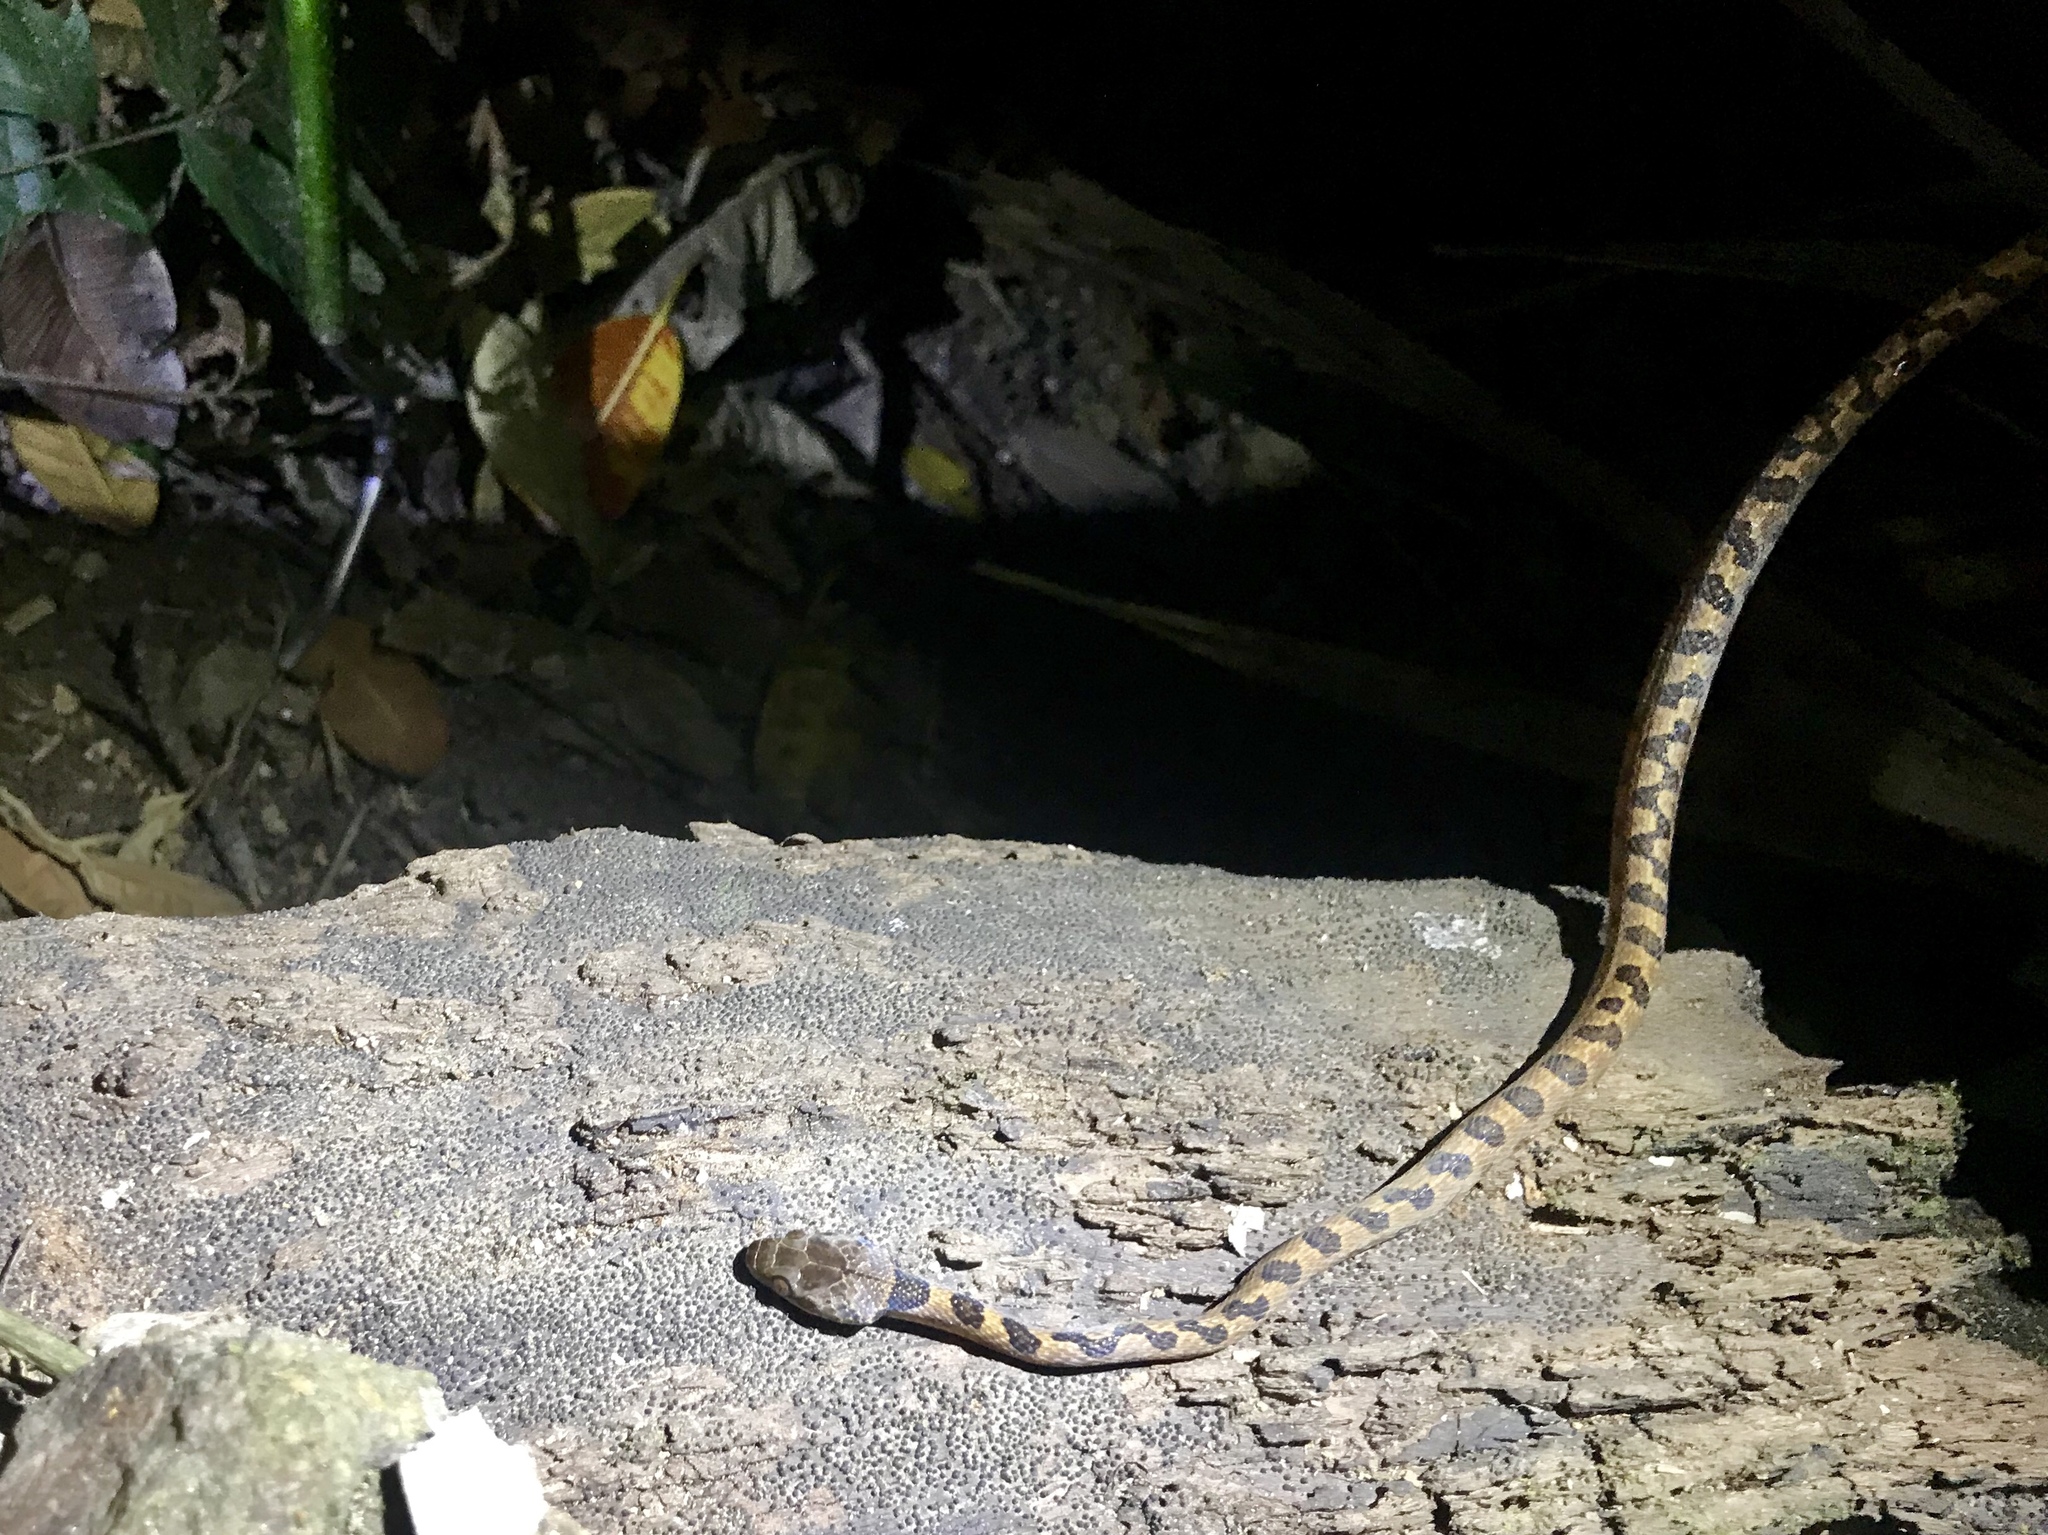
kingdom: Animalia
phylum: Chordata
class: Squamata
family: Colubridae
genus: Leptodeira
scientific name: Leptodeira rhombifera
